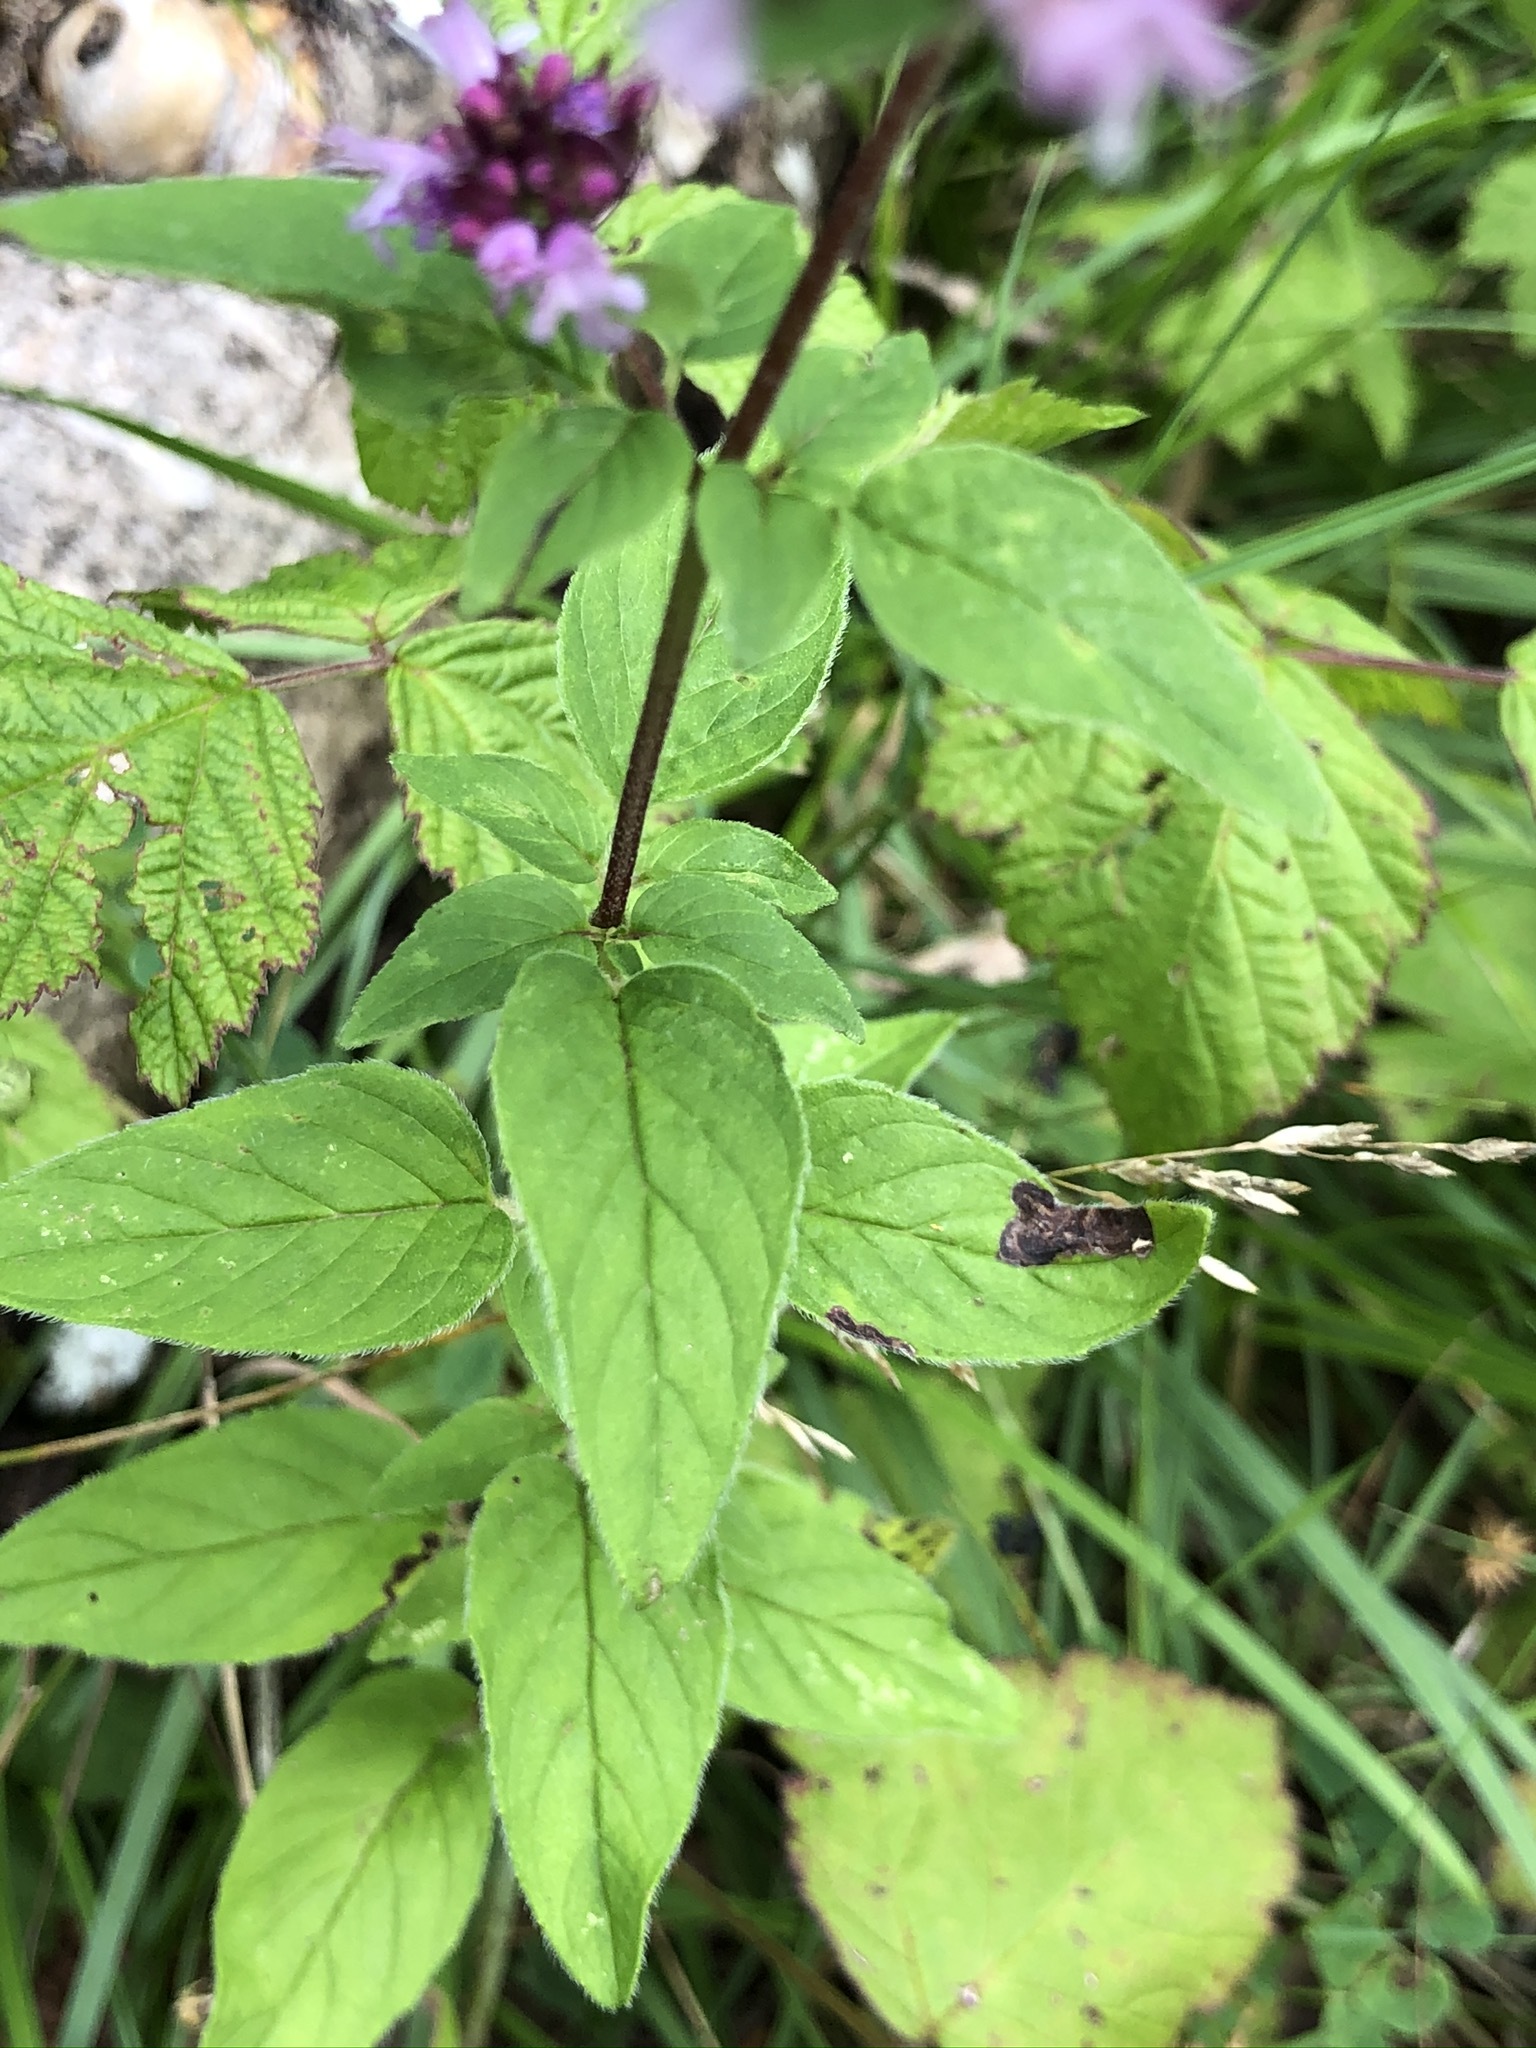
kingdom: Plantae
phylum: Tracheophyta
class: Magnoliopsida
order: Lamiales
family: Lamiaceae
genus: Origanum
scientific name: Origanum vulgare
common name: Wild marjoram
